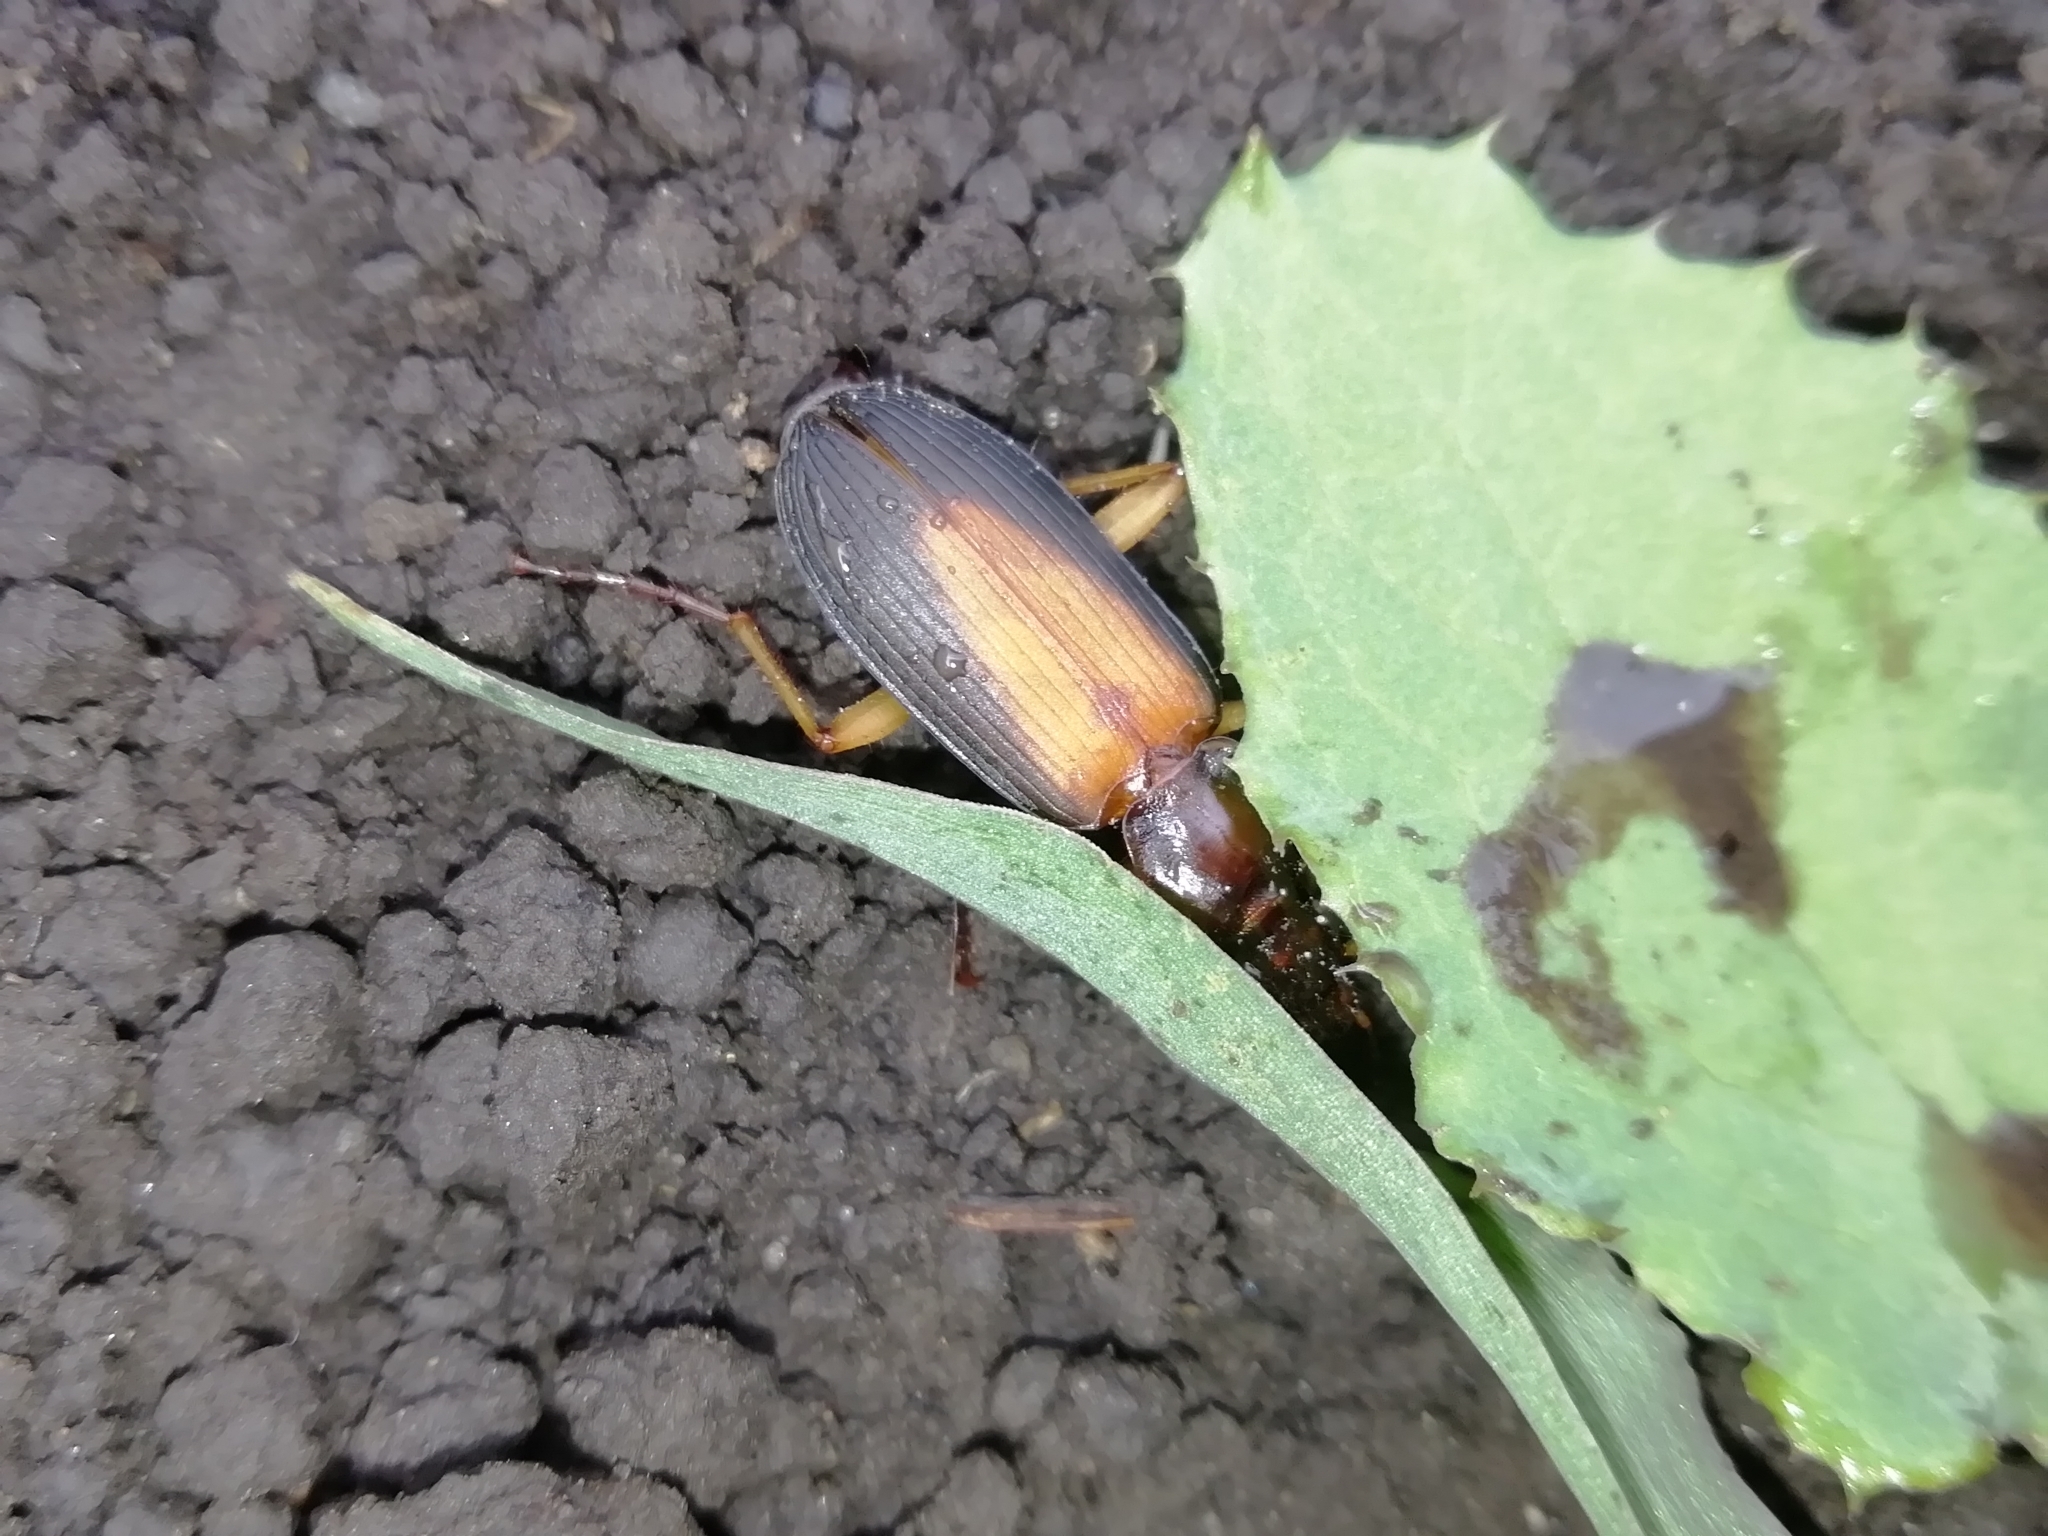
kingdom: Animalia
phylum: Arthropoda
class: Insecta
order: Coleoptera
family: Carabidae
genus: Dolichus
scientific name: Dolichus halensis
